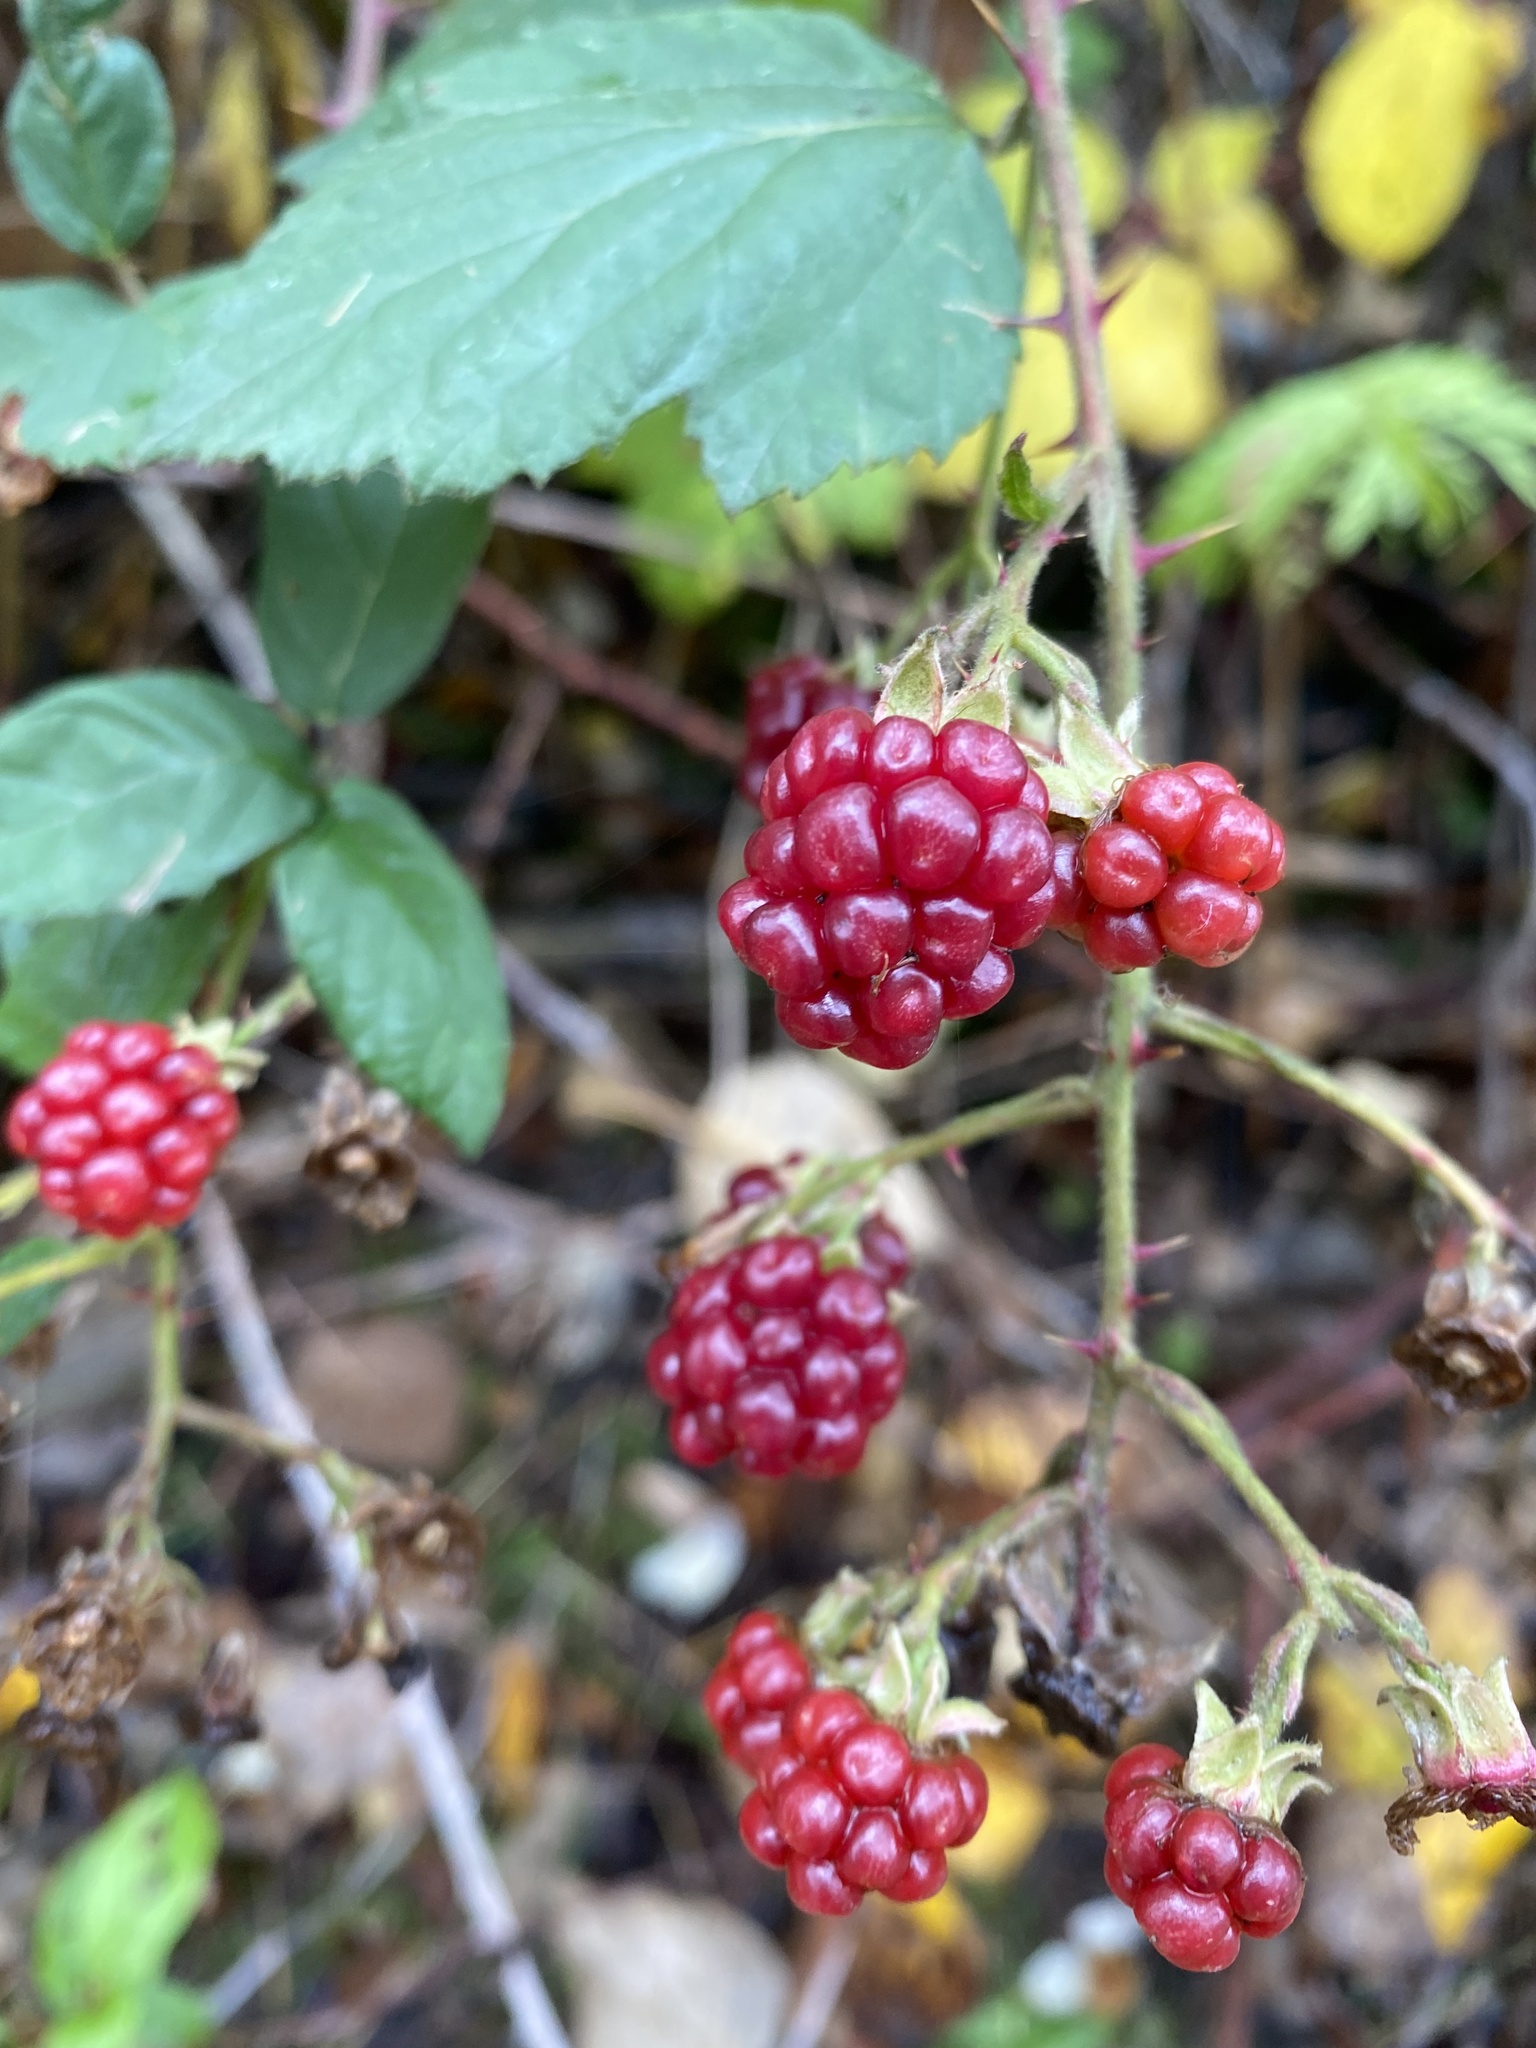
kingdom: Plantae
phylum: Tracheophyta
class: Magnoliopsida
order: Rosales
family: Rosaceae
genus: Rubus
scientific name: Rubus armeniacus
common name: Himalayan blackberry
